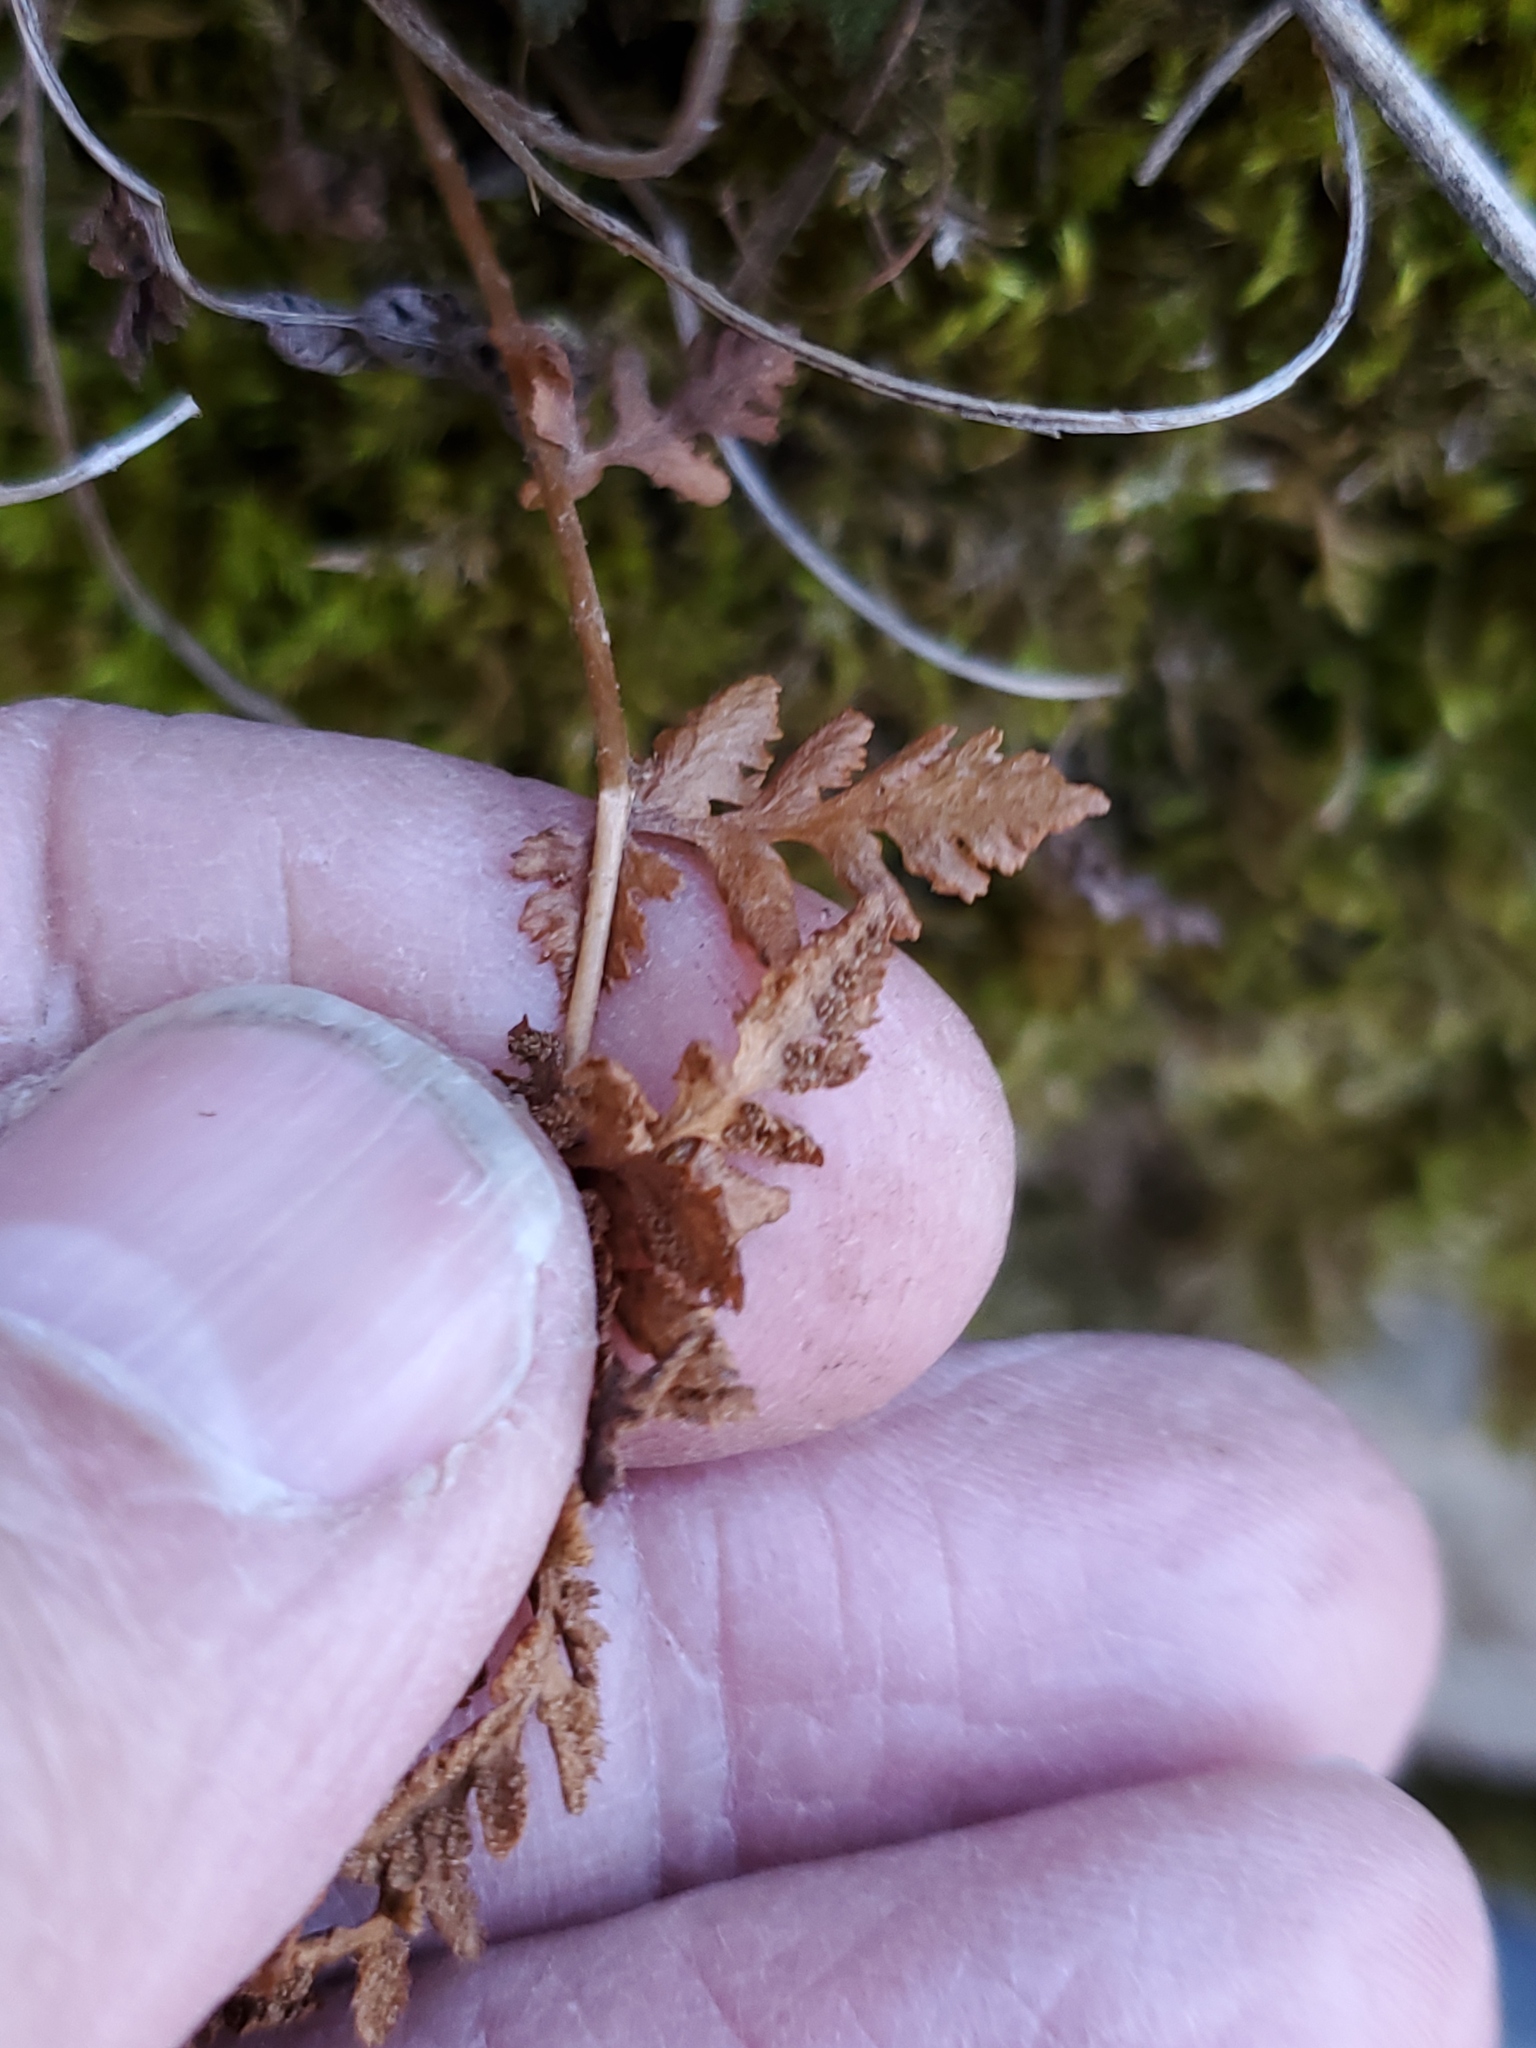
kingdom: Plantae
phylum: Tracheophyta
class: Polypodiopsida
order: Polypodiales
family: Woodsiaceae
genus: Physematium
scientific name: Physematium oreganum
